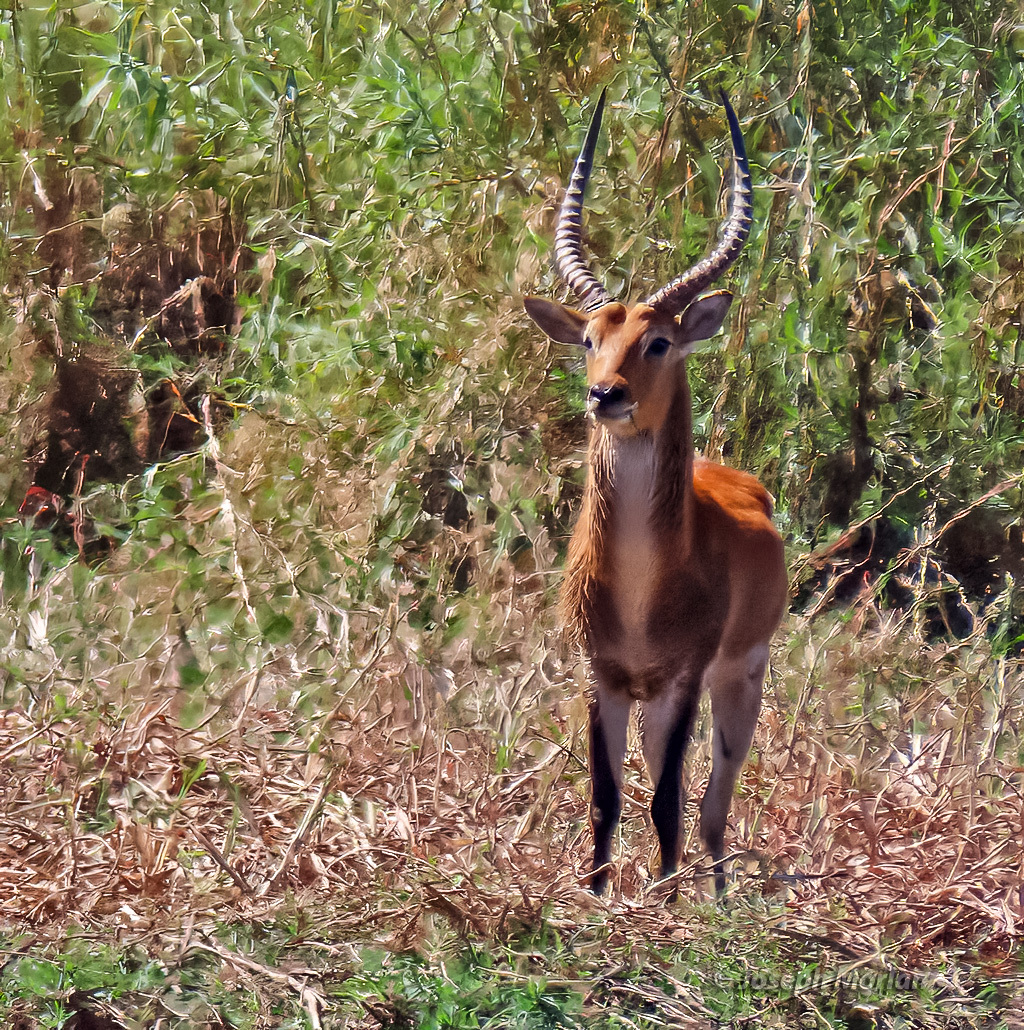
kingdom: Animalia
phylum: Chordata
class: Mammalia
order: Artiodactyla
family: Bovidae
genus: Kobus
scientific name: Kobus leche
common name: Lechwe
